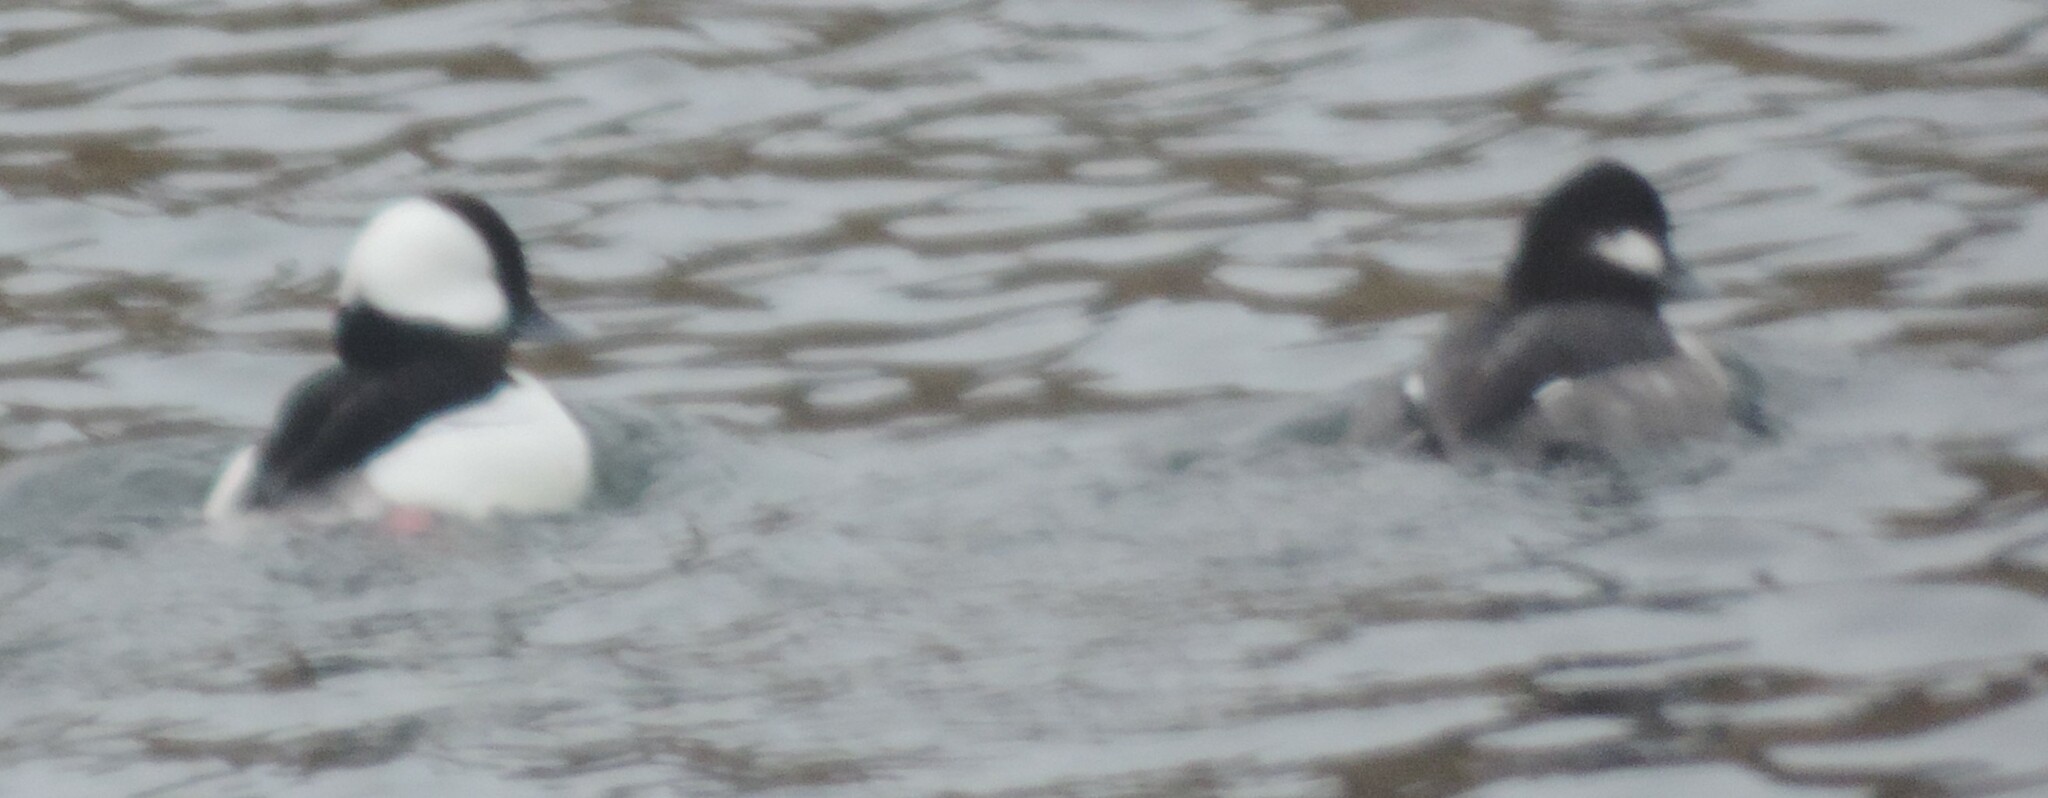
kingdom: Animalia
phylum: Chordata
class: Aves
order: Anseriformes
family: Anatidae
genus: Bucephala
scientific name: Bucephala albeola
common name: Bufflehead
